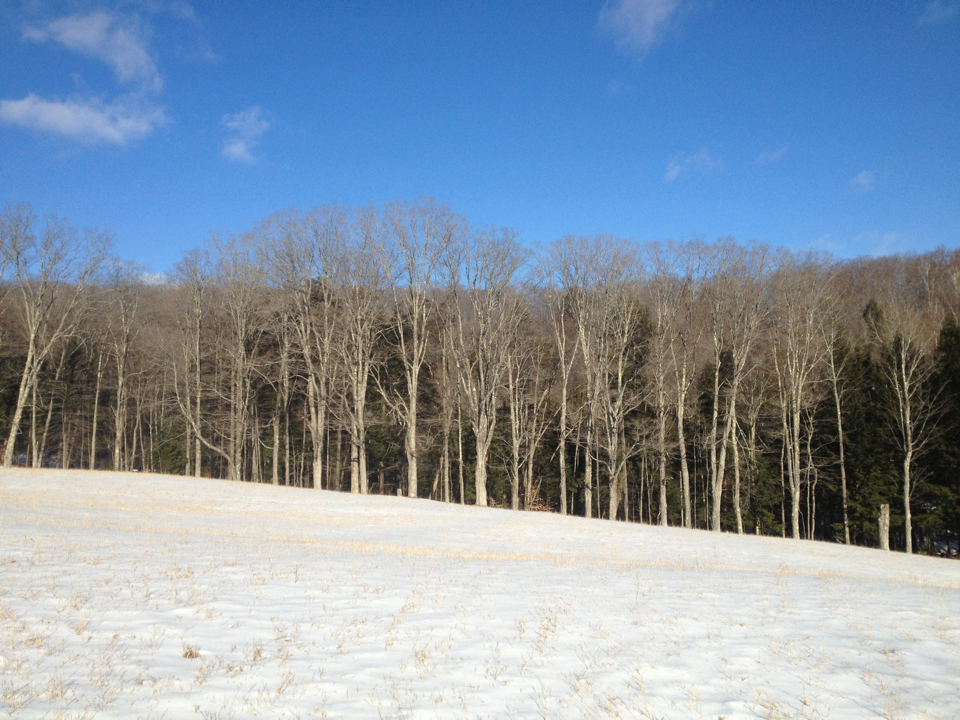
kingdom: Plantae
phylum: Tracheophyta
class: Magnoliopsida
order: Sapindales
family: Sapindaceae
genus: Acer
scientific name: Acer saccharum
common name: Sugar maple
